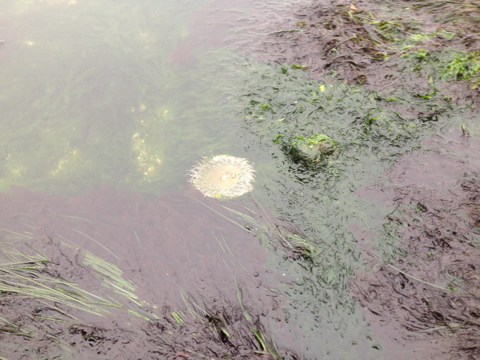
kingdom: Animalia
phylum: Cnidaria
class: Anthozoa
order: Actiniaria
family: Actiniidae
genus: Anthopleura
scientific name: Anthopleura sola
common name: Sun anemone
